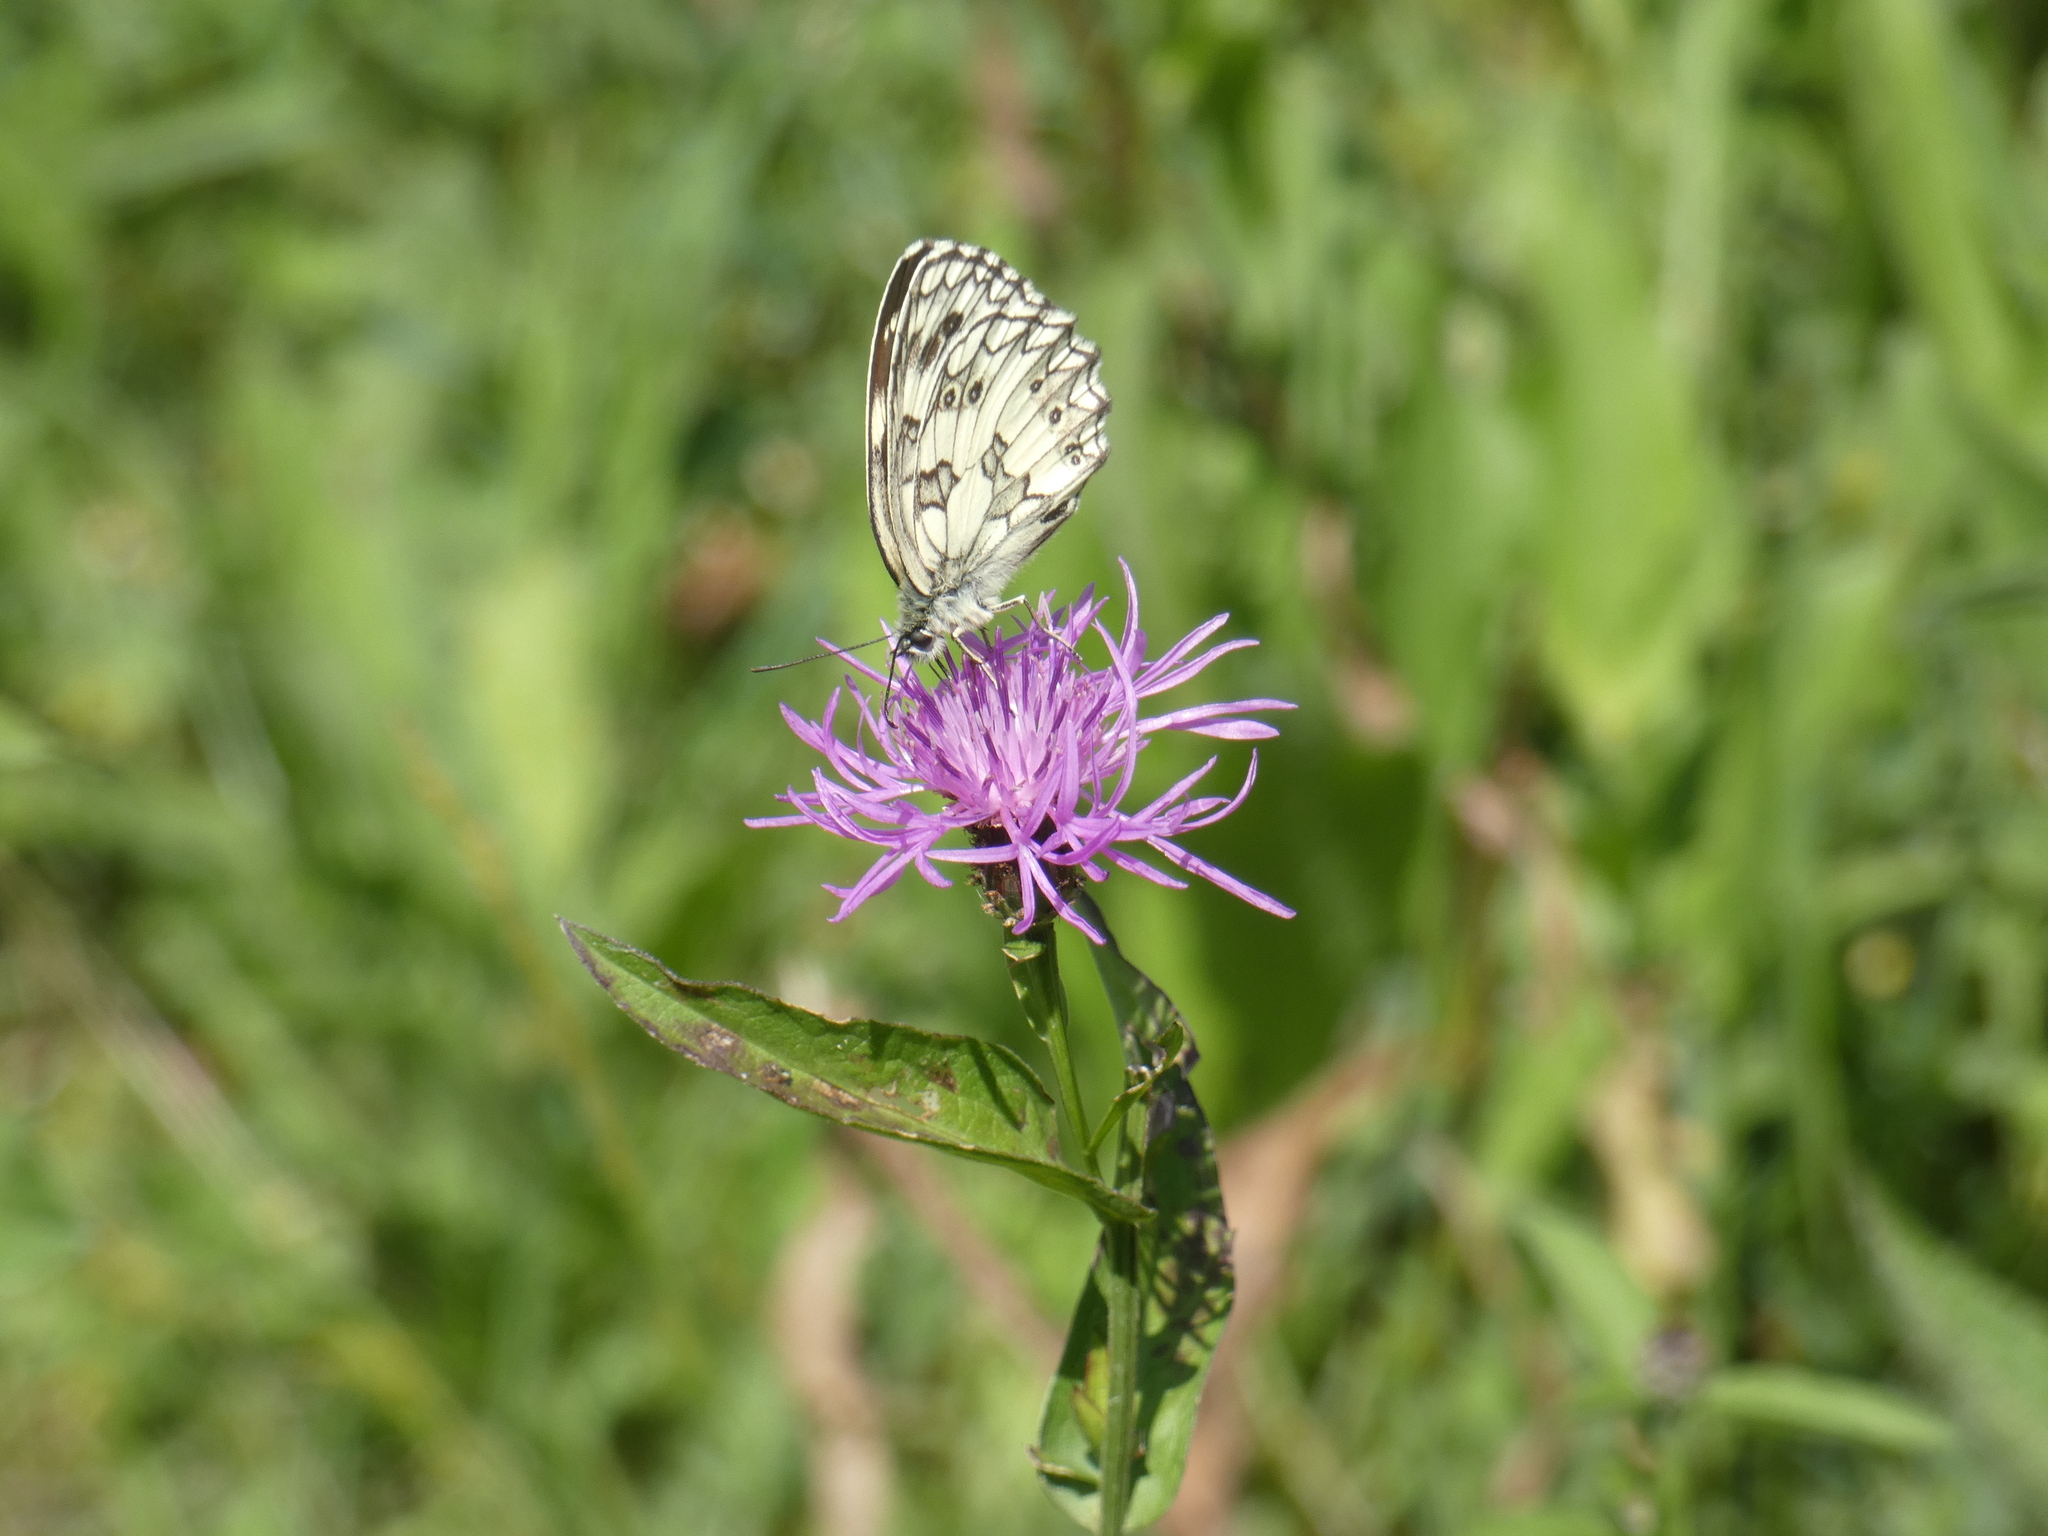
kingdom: Animalia
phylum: Arthropoda
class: Insecta
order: Lepidoptera
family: Nymphalidae
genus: Melanargia
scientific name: Melanargia galathea
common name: Marbled white
